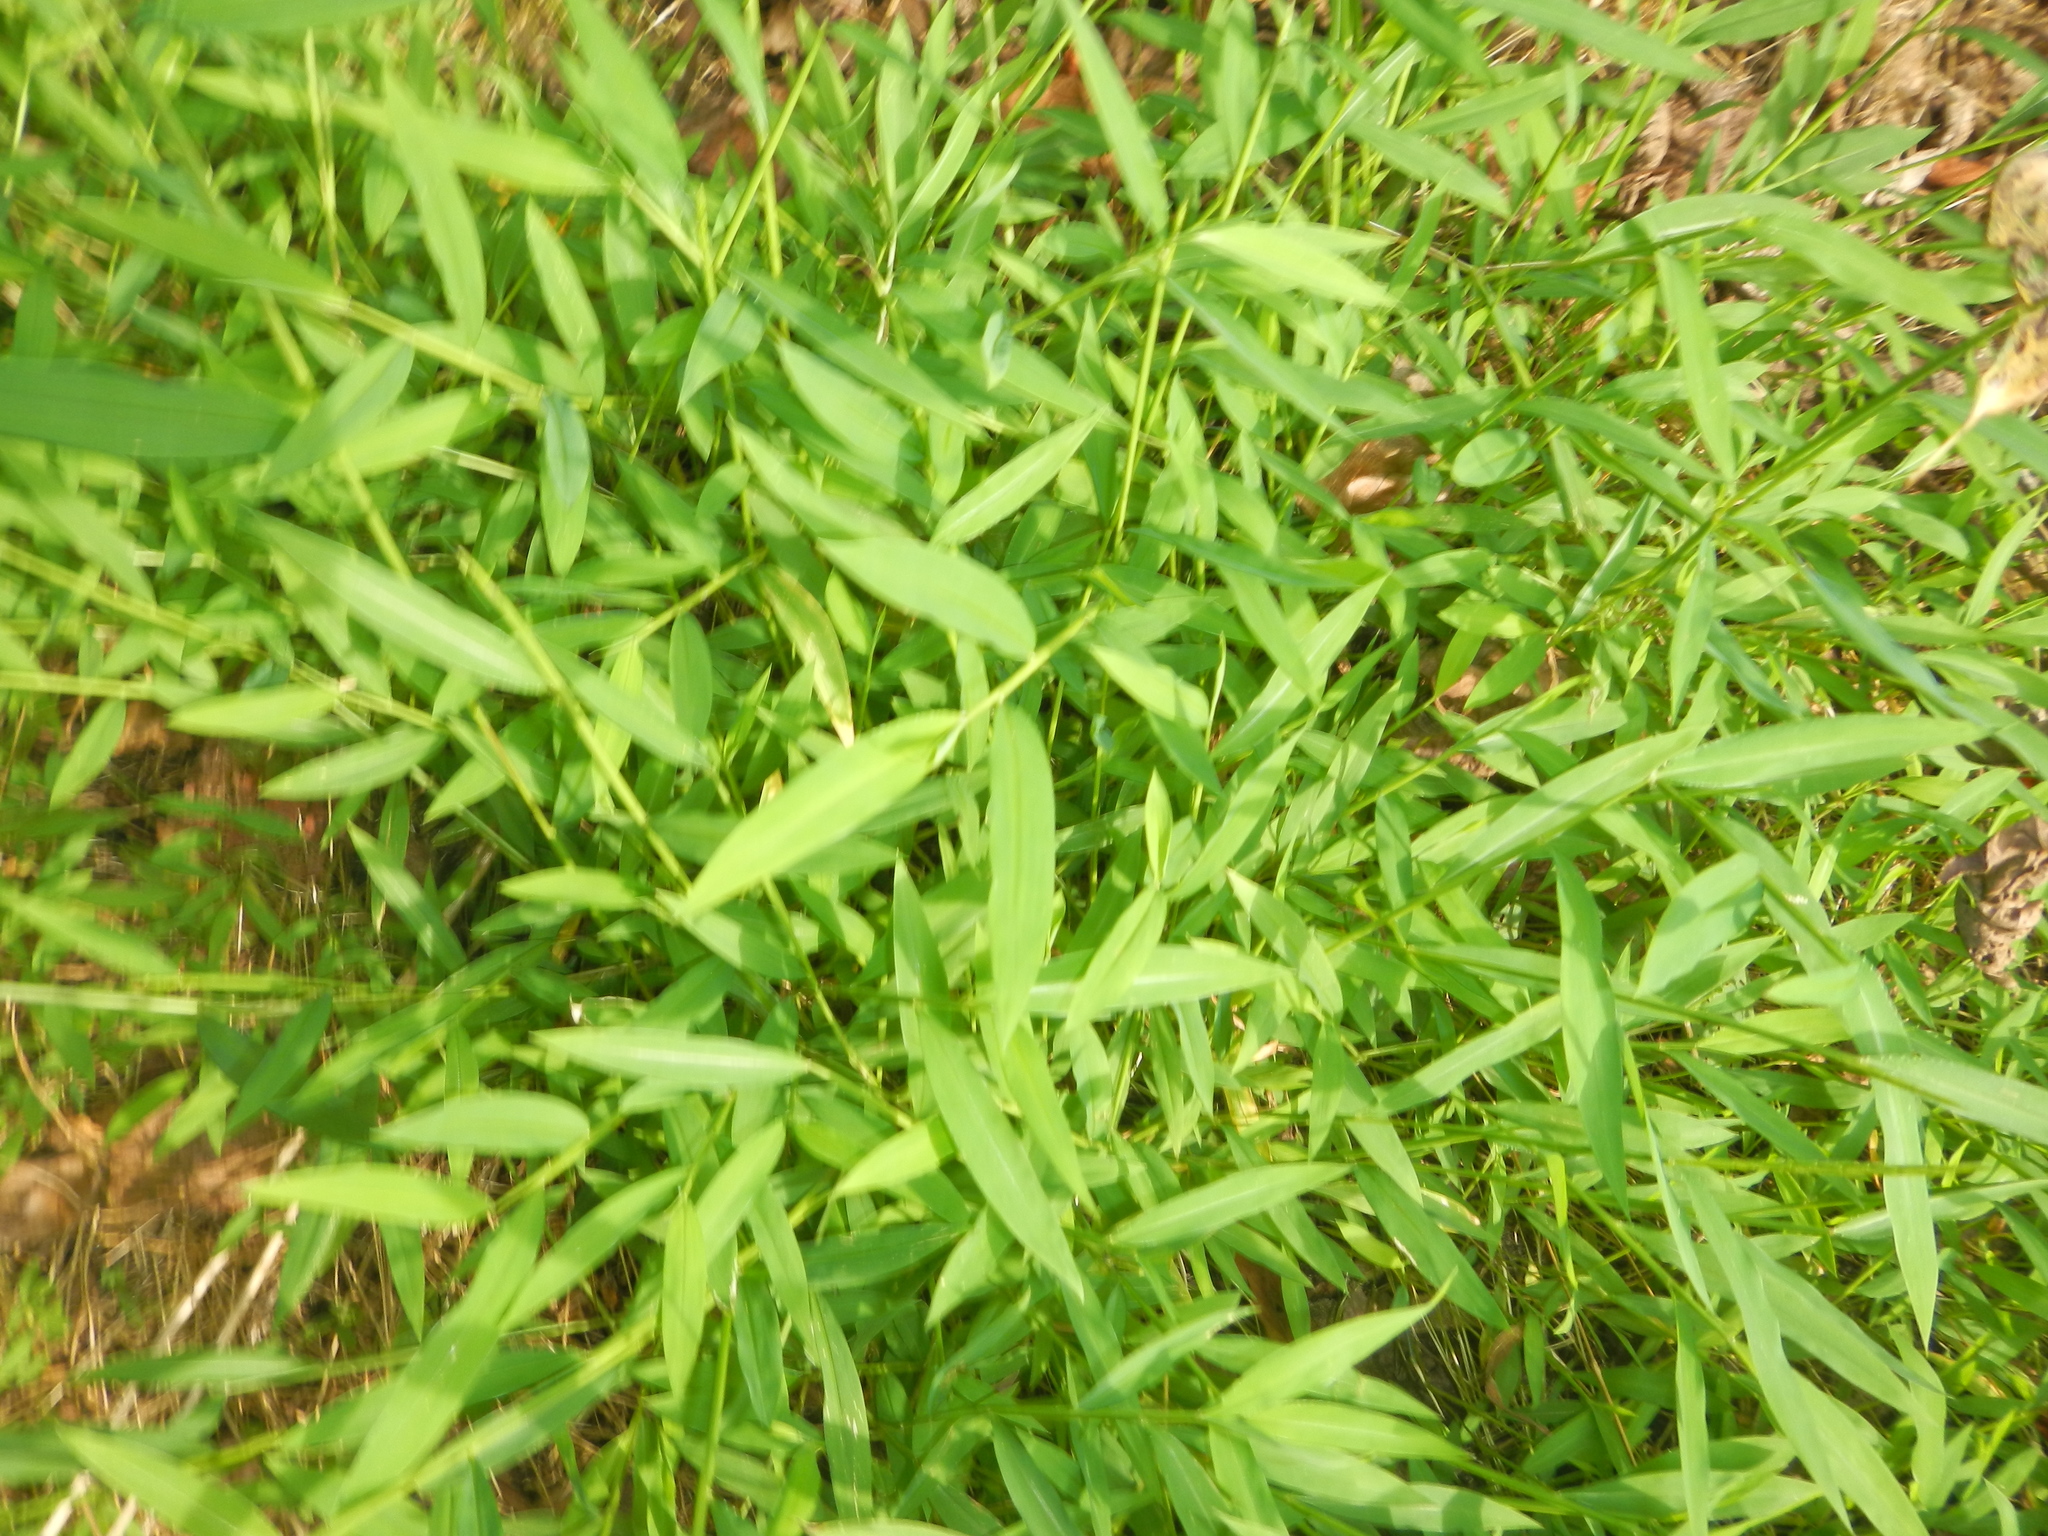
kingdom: Plantae
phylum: Tracheophyta
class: Liliopsida
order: Poales
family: Poaceae
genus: Microstegium
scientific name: Microstegium vimineum
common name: Japanese stiltgrass
